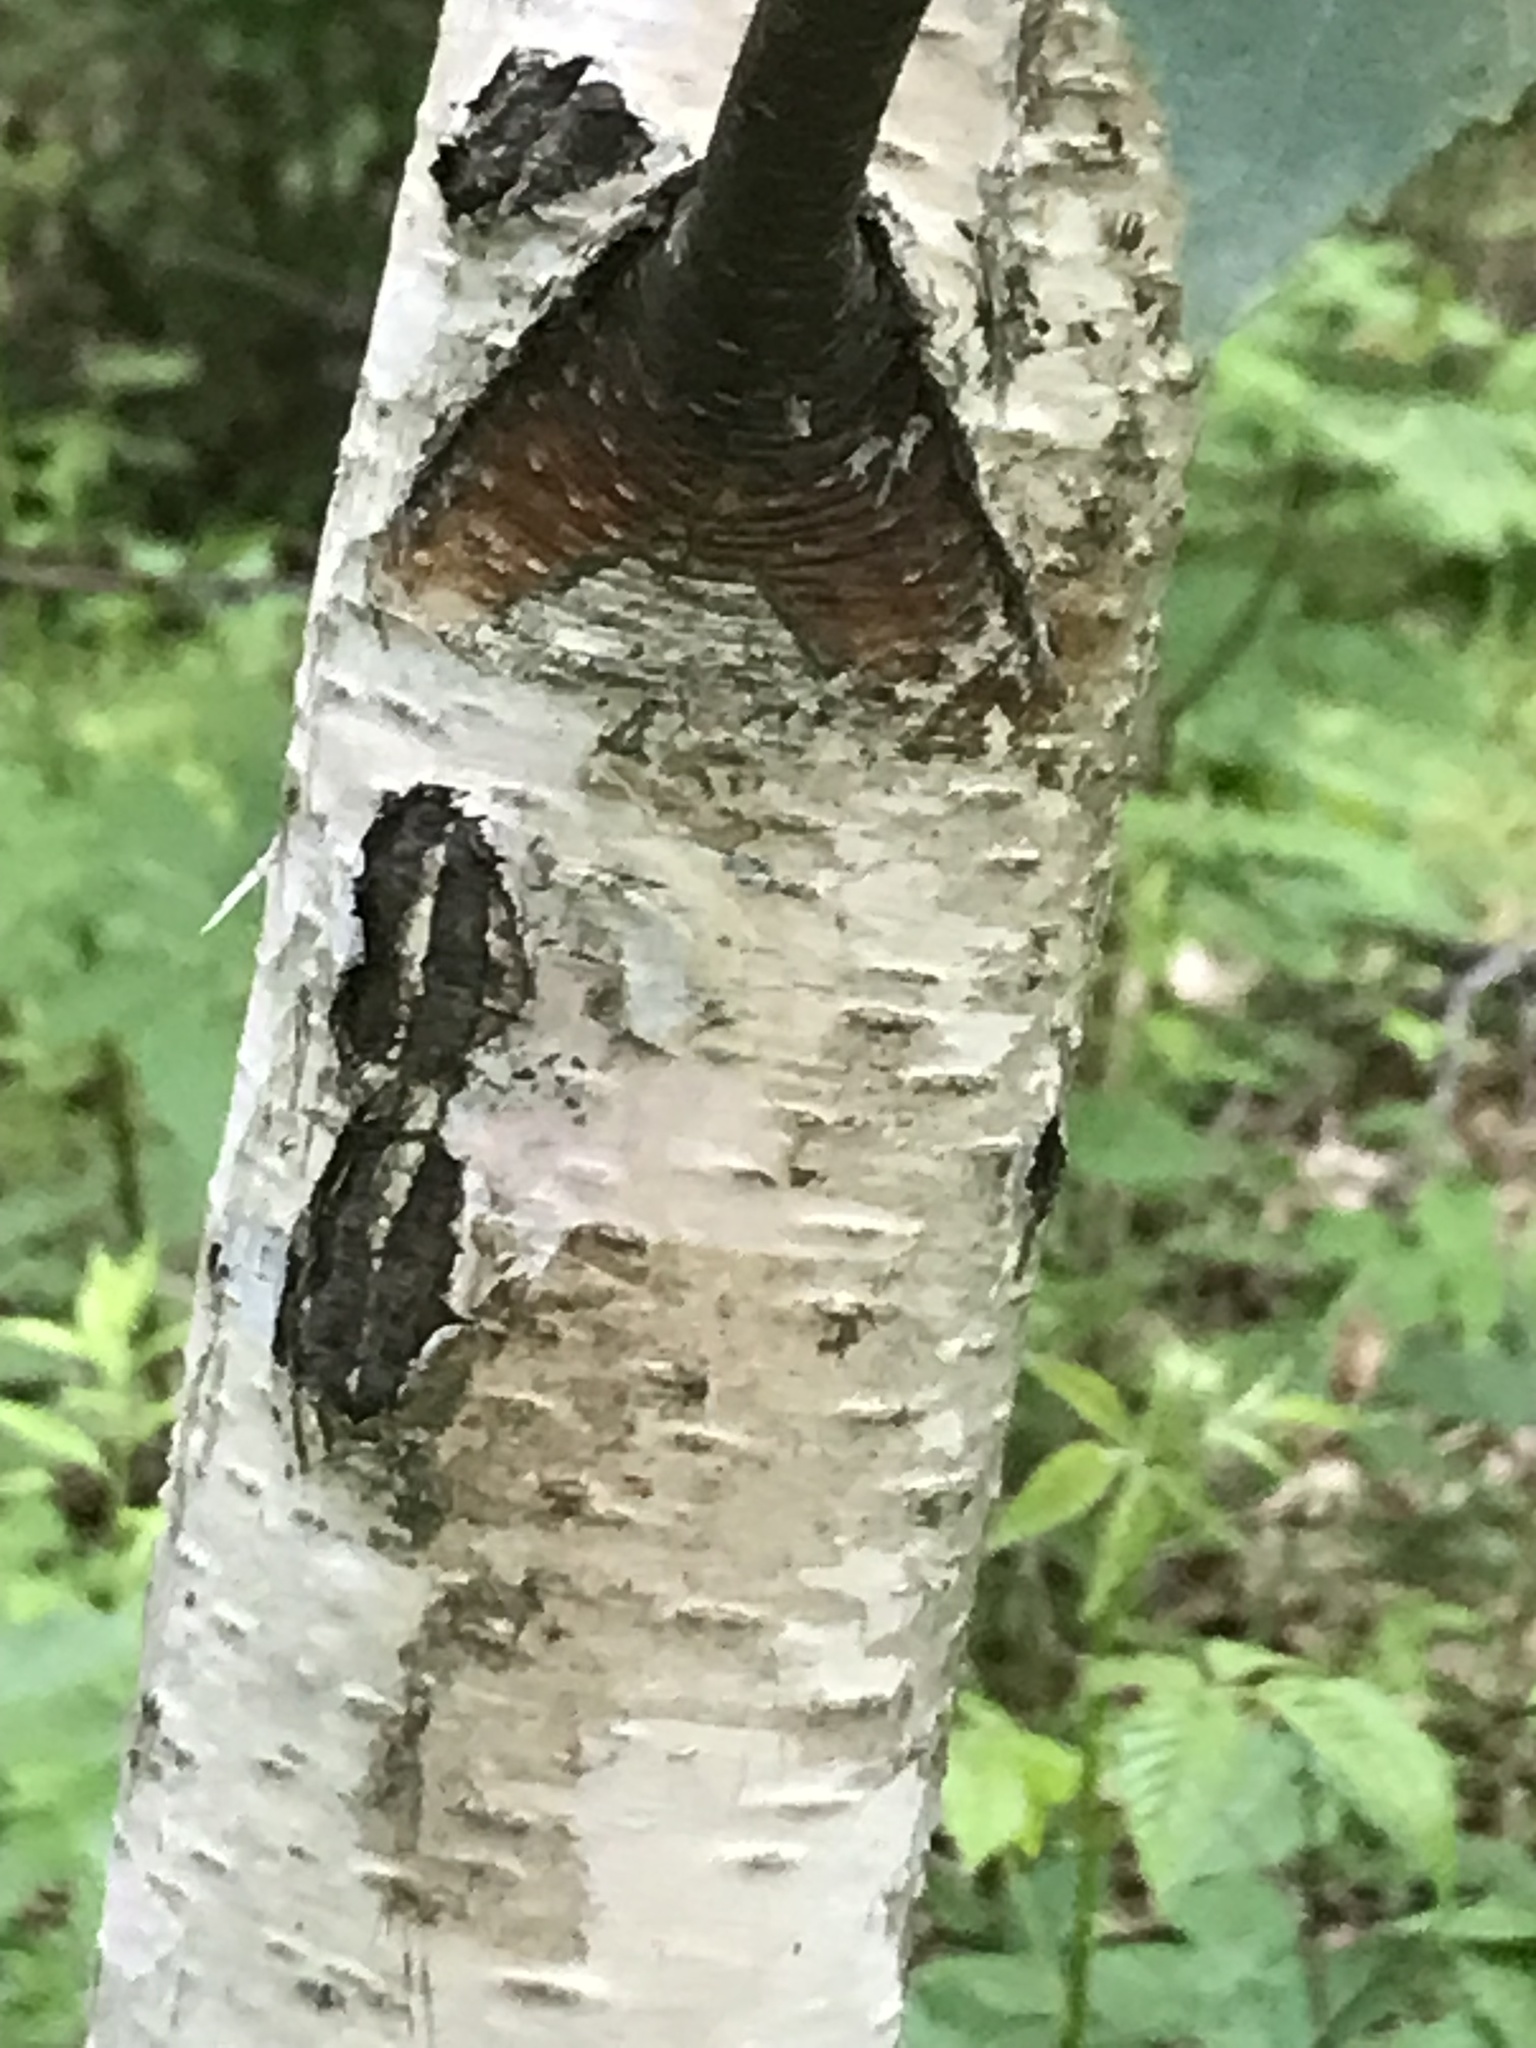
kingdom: Plantae
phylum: Tracheophyta
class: Magnoliopsida
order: Fagales
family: Betulaceae
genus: Betula
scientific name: Betula populifolia
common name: Fire birch
